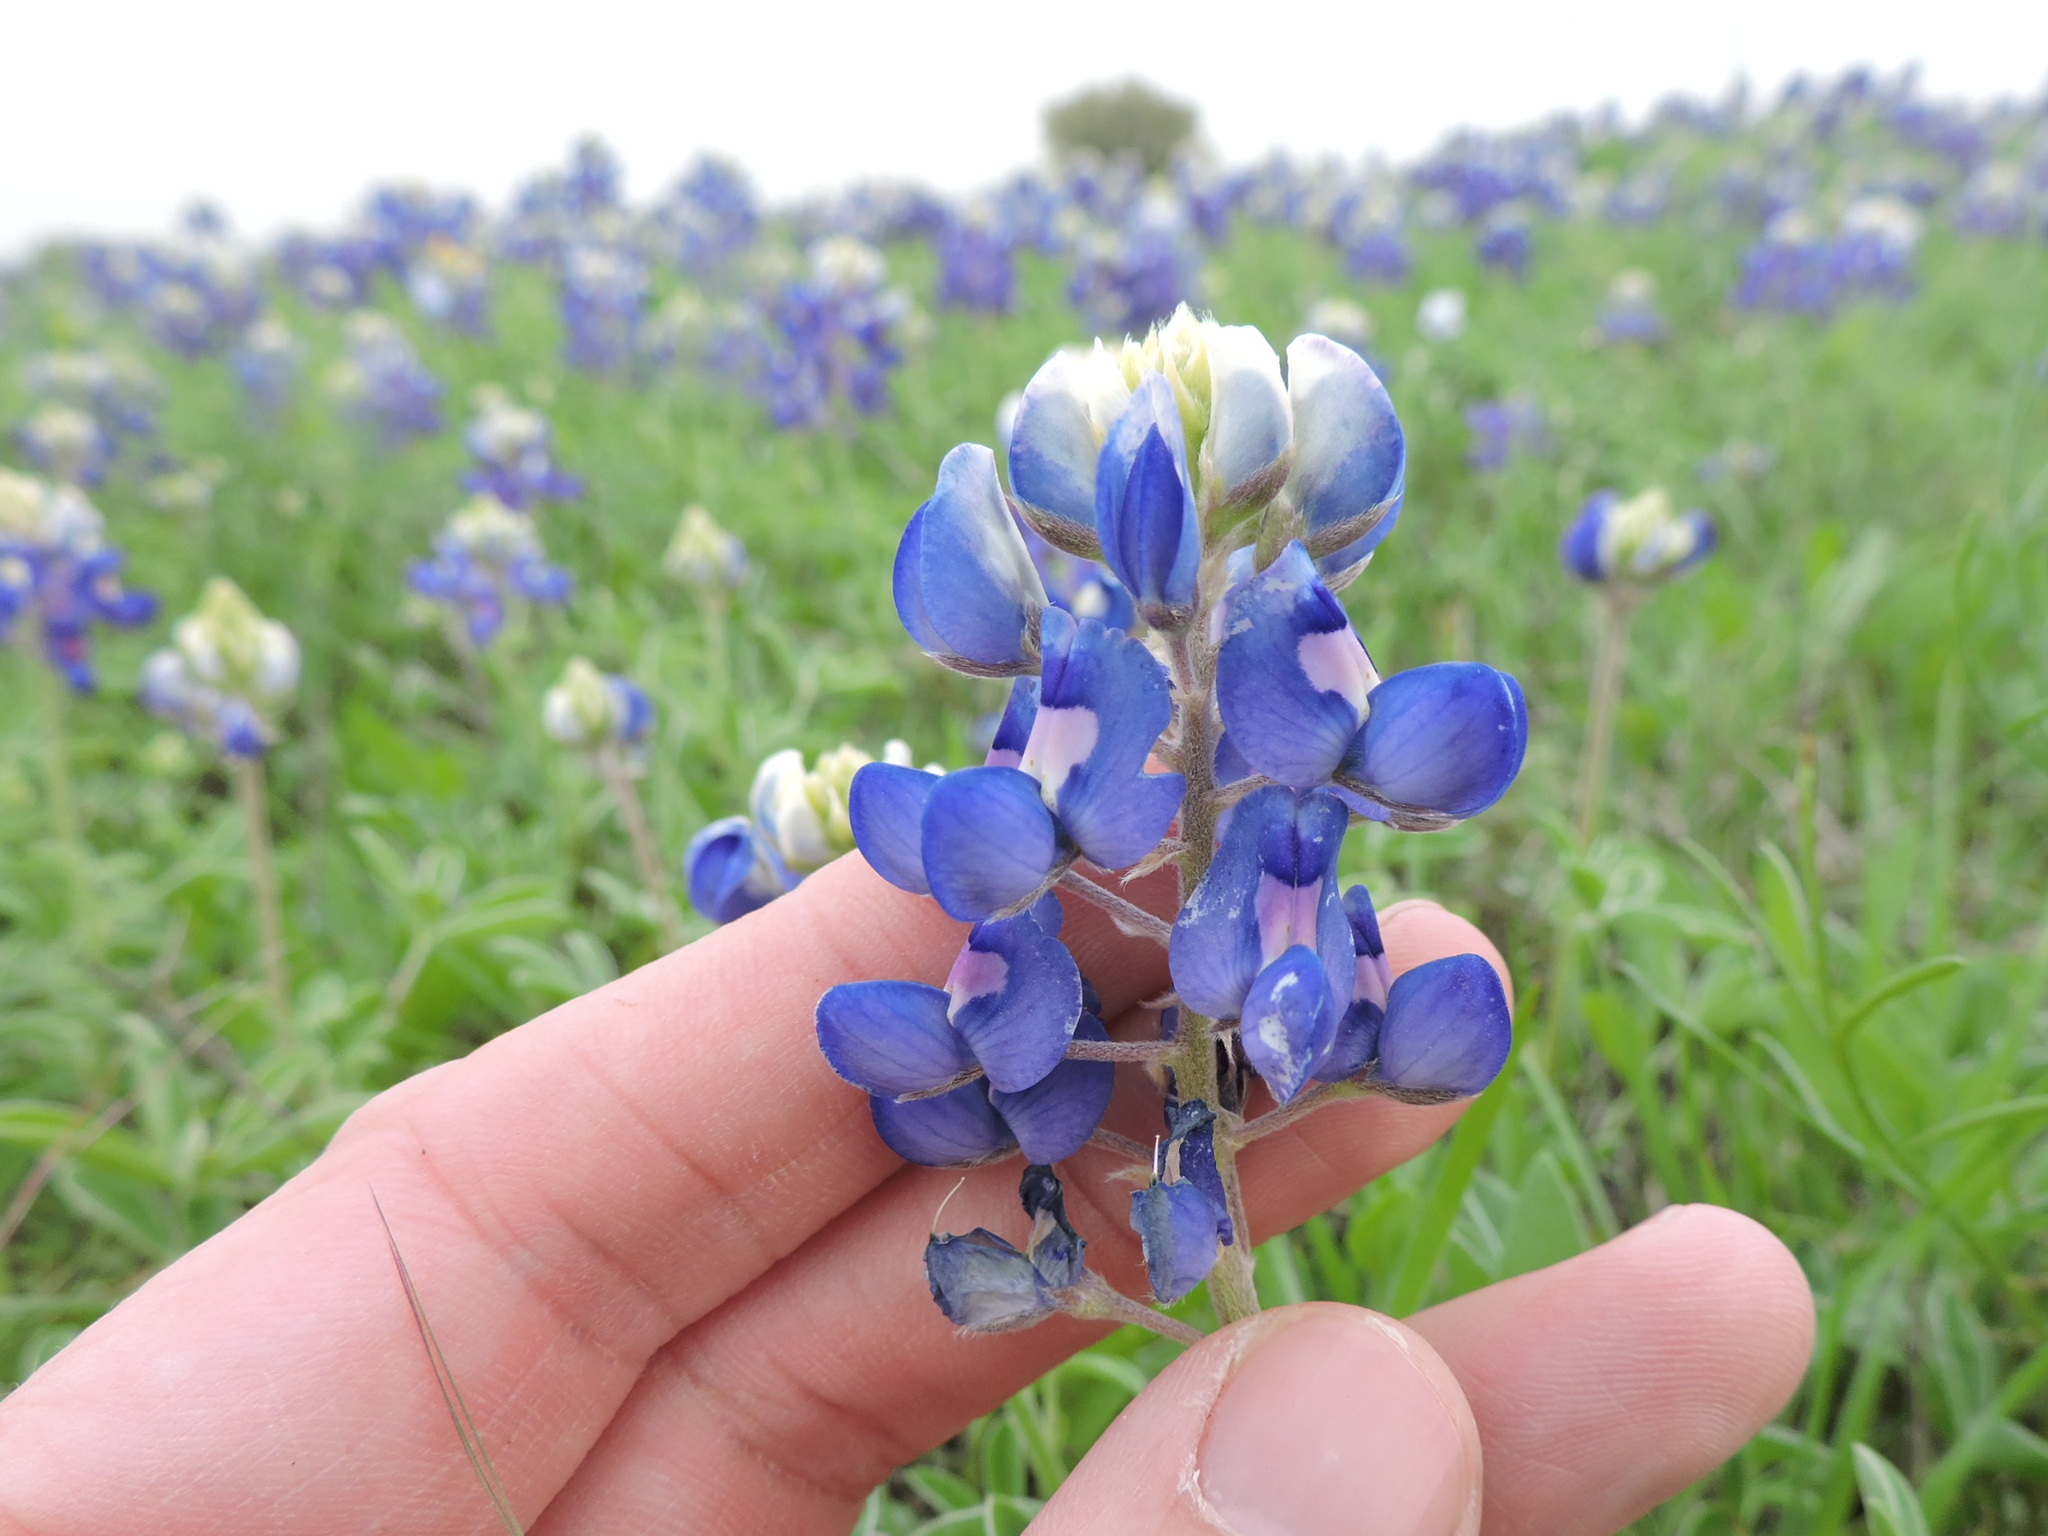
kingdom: Plantae
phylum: Tracheophyta
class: Magnoliopsida
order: Fabales
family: Fabaceae
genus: Lupinus
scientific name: Lupinus texensis
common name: Texas bluebonnet
